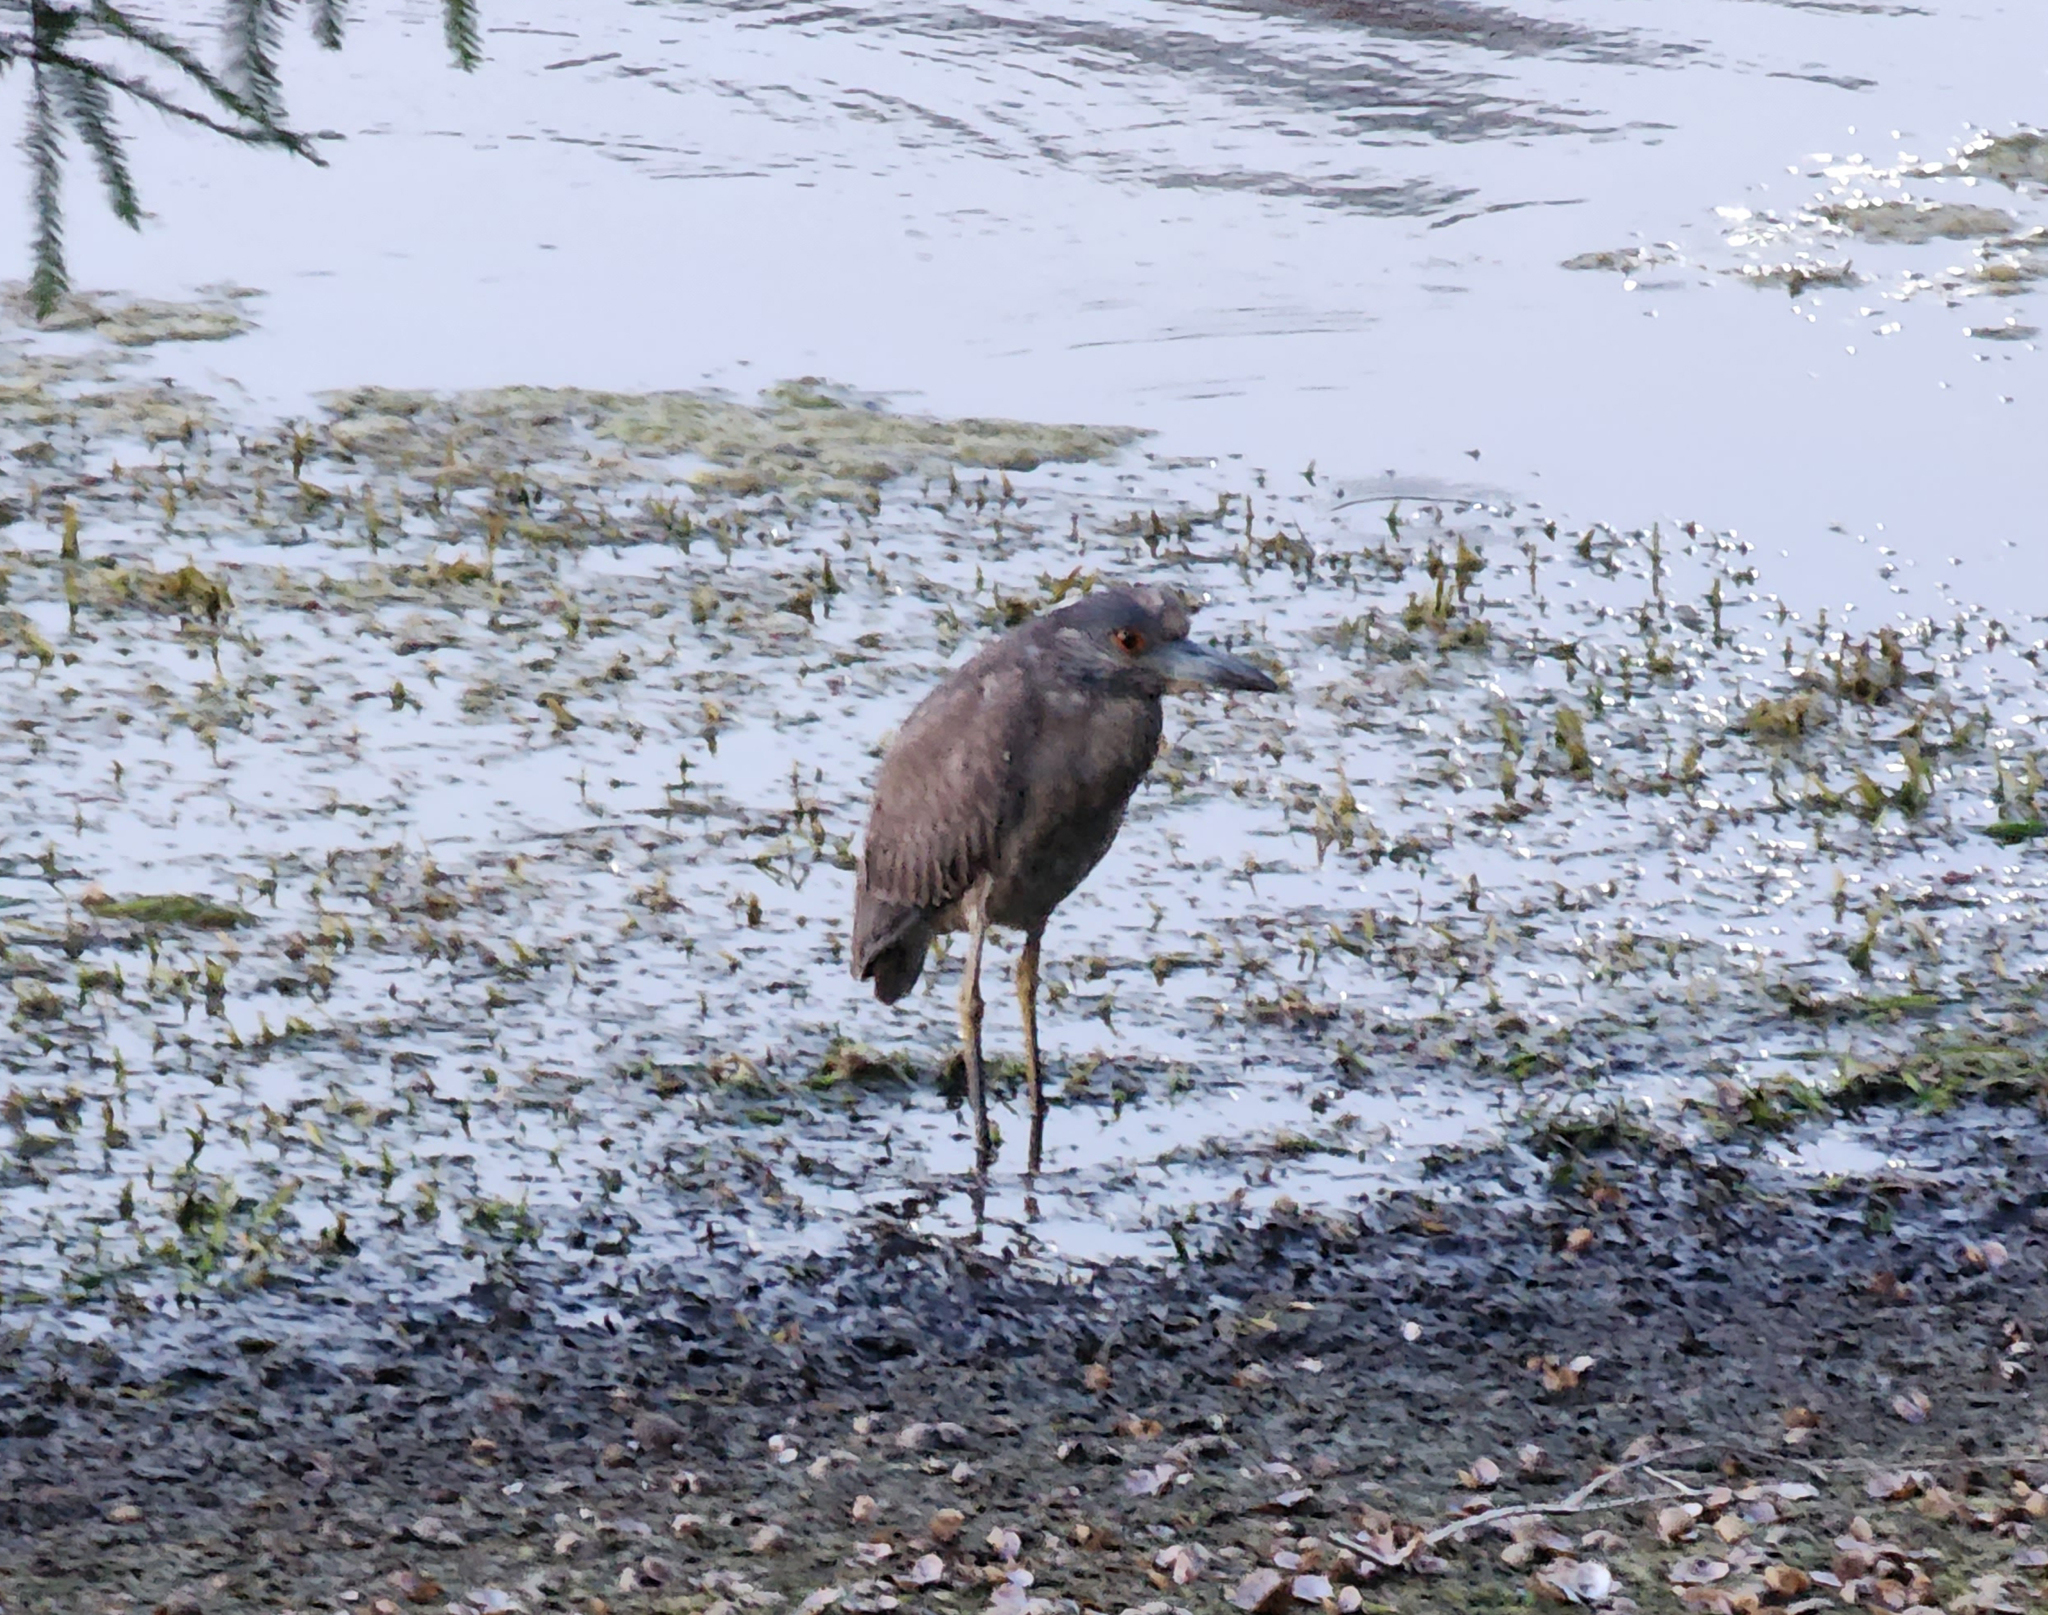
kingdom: Animalia
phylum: Chordata
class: Aves
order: Pelecaniformes
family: Ardeidae
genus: Nyctanassa
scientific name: Nyctanassa violacea
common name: Yellow-crowned night heron
